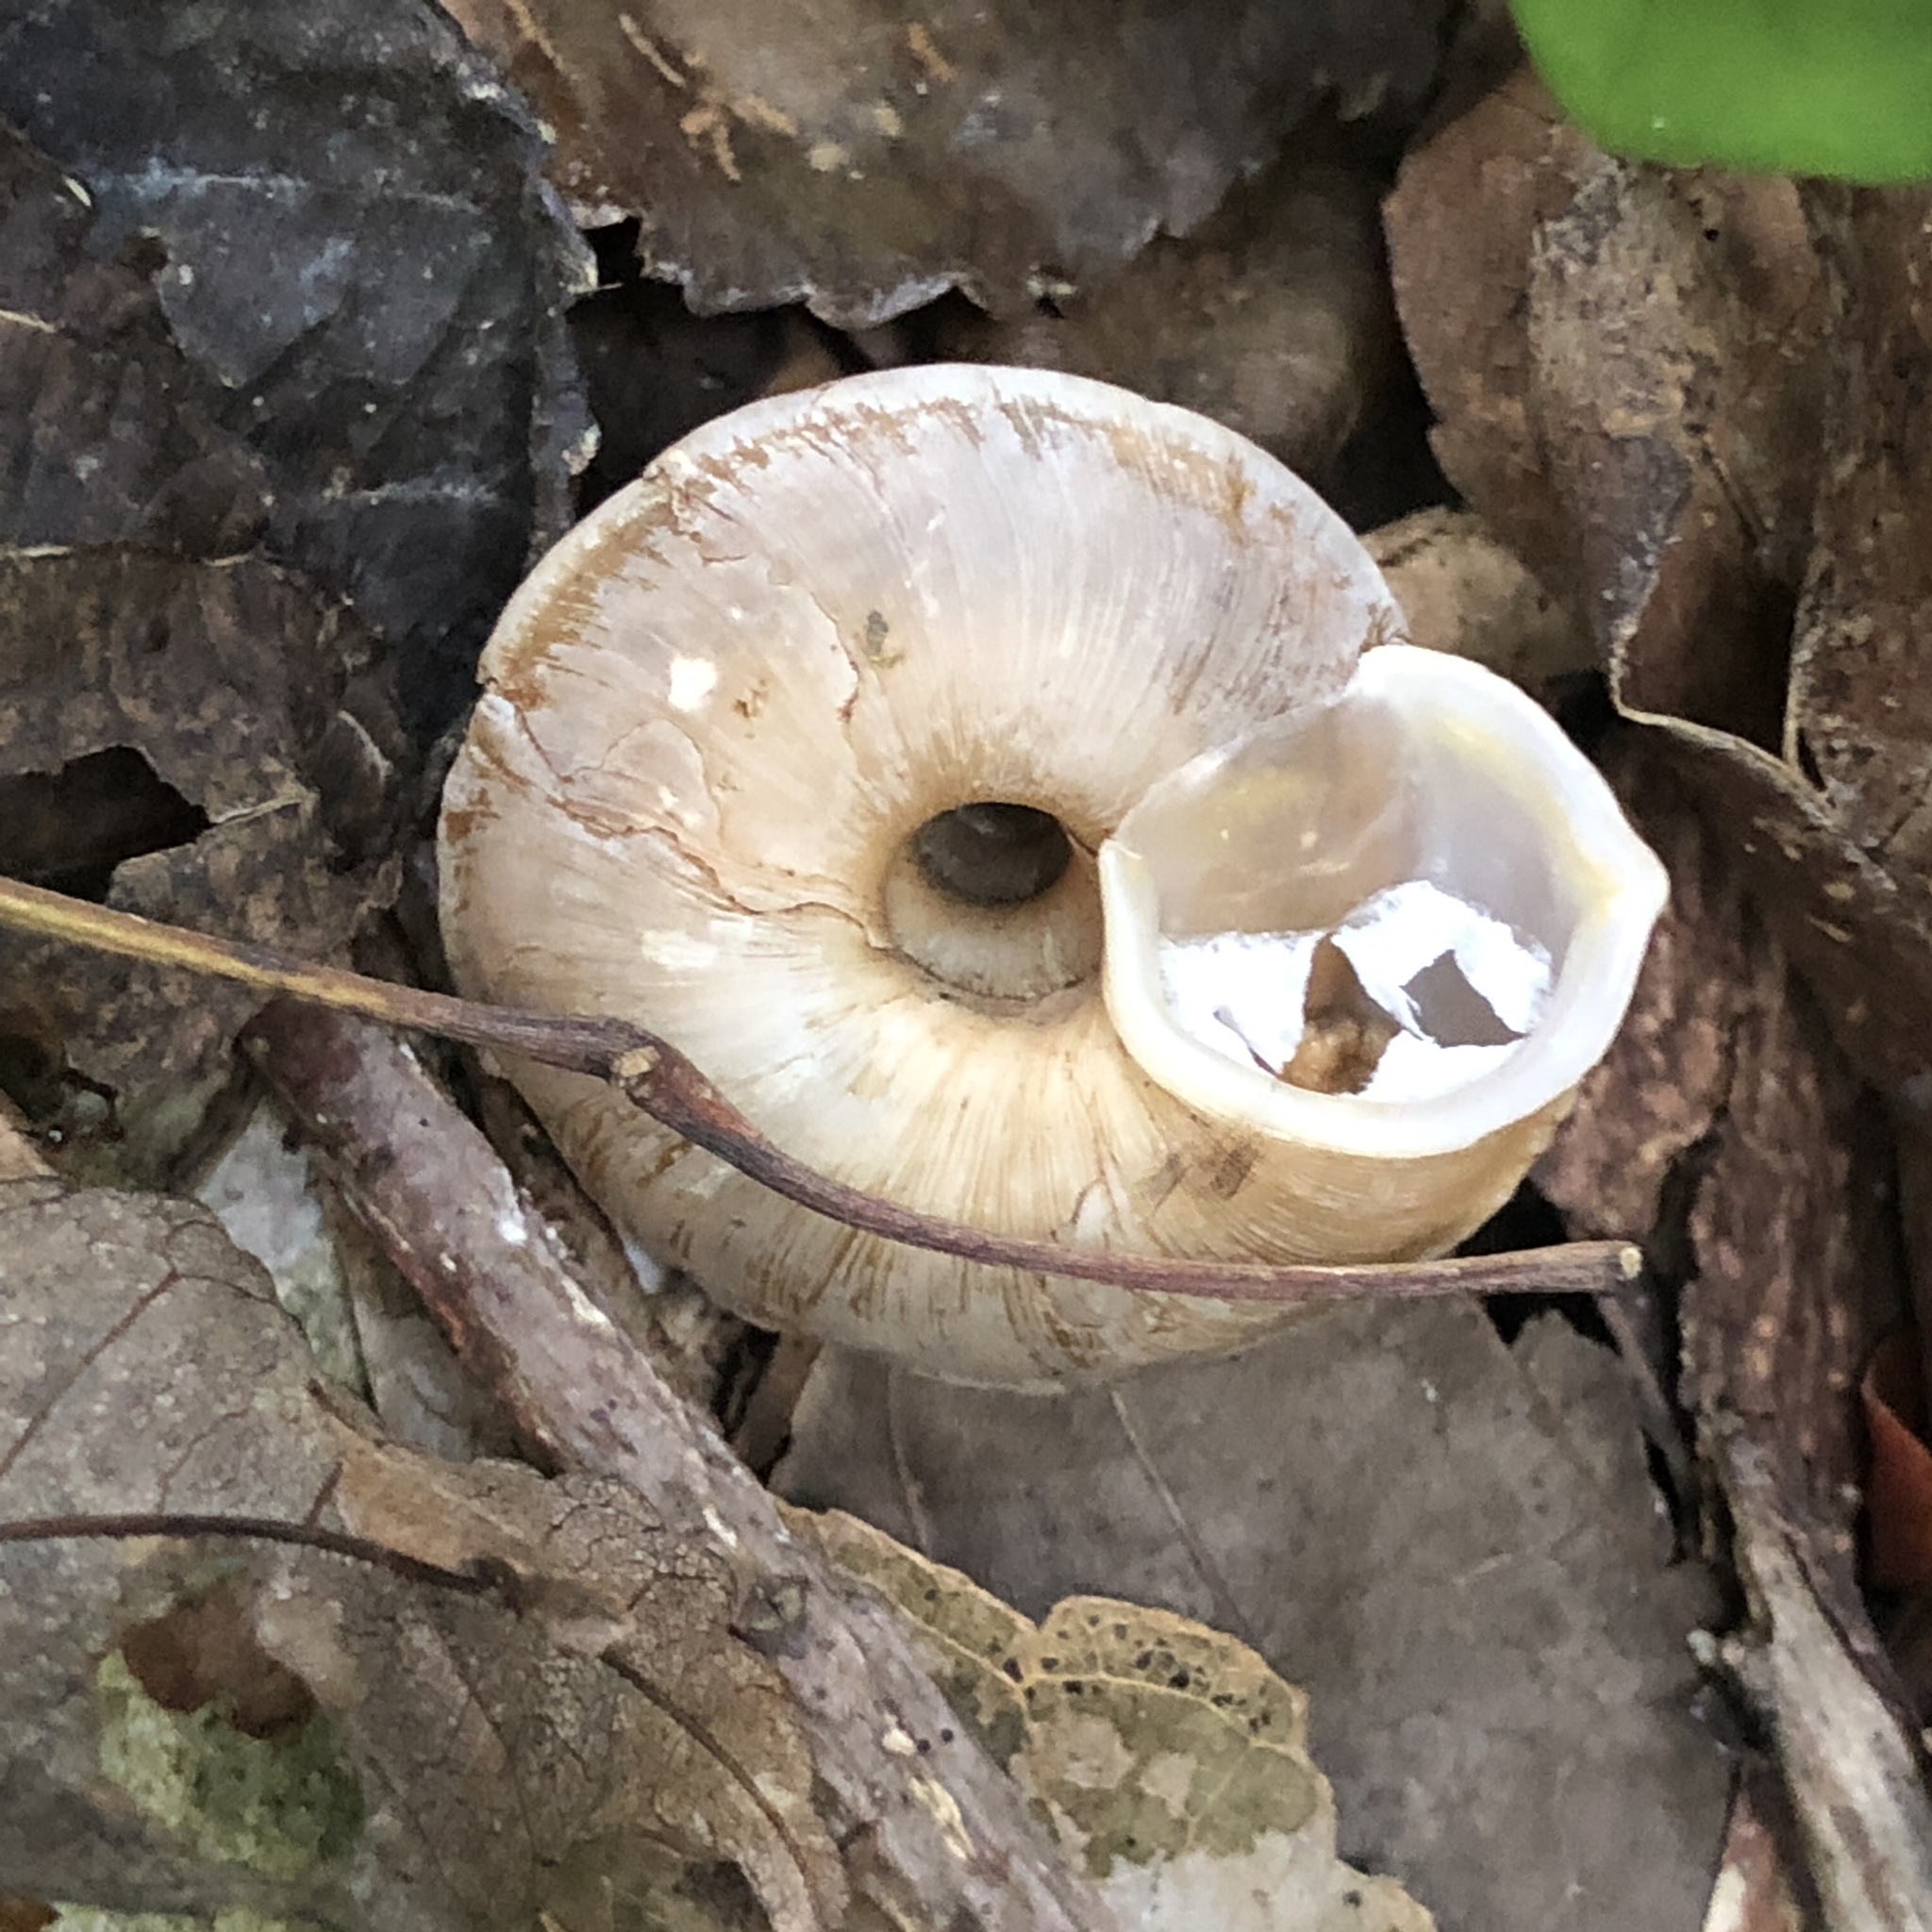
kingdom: Animalia
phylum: Mollusca
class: Gastropoda
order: Stylommatophora
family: Camaenidae
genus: Plectotropis
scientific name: Plectotropis marginata
